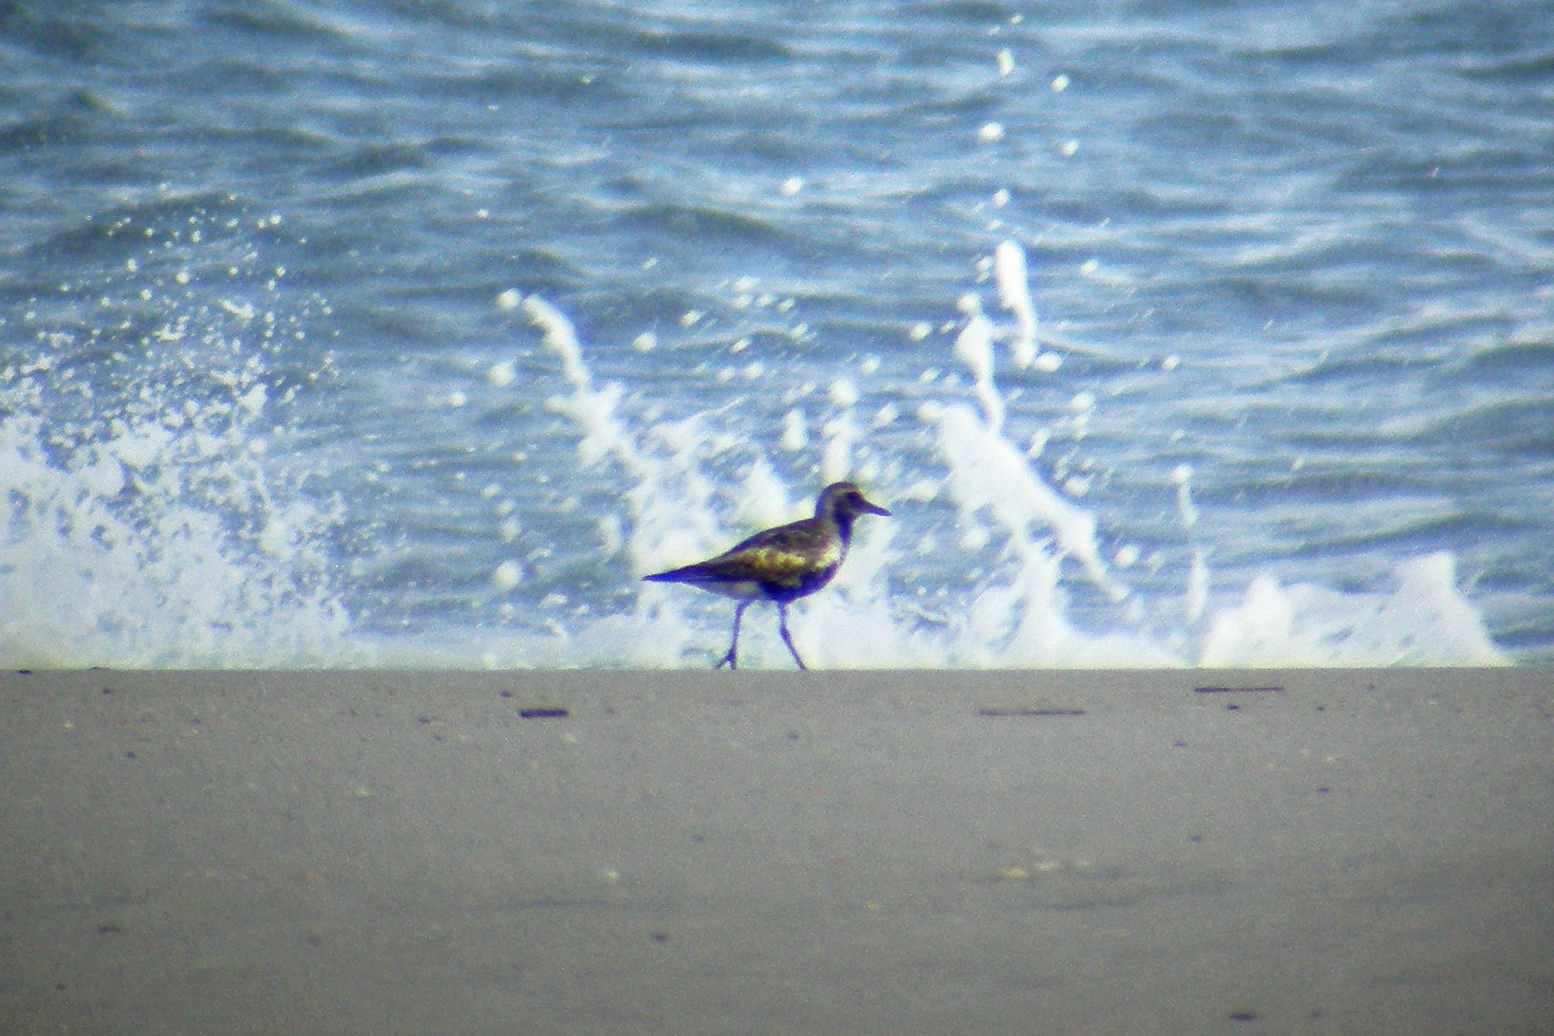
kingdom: Animalia
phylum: Chordata
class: Aves
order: Charadriiformes
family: Charadriidae
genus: Pluvialis
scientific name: Pluvialis squatarola
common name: Grey plover
